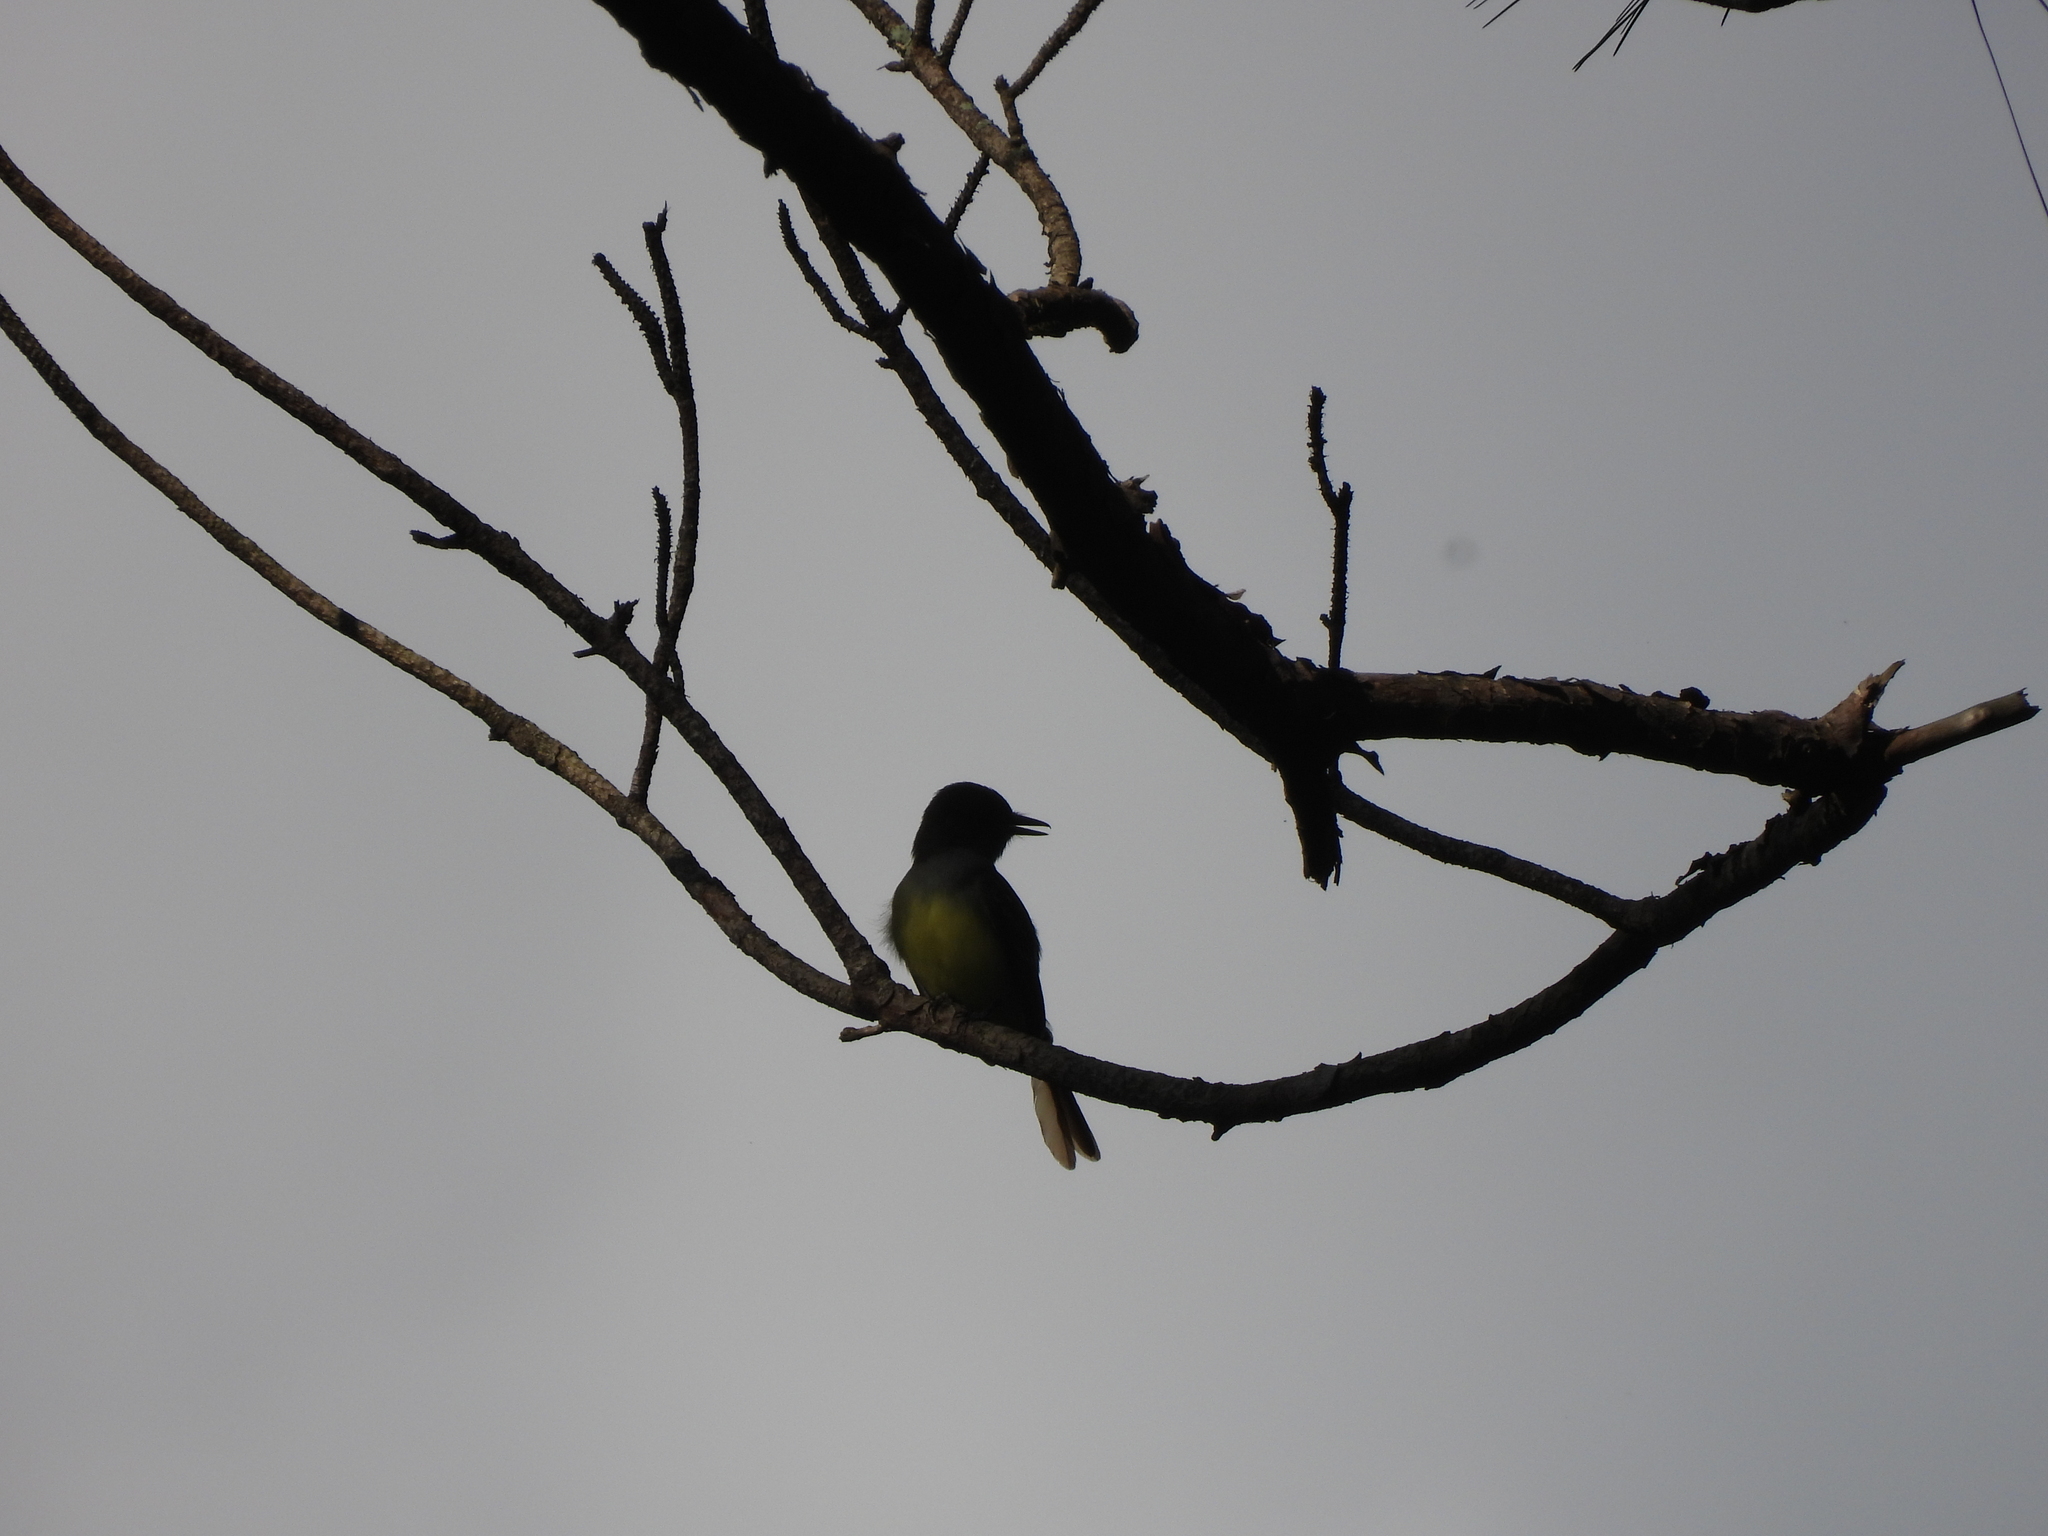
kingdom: Animalia
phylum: Chordata
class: Aves
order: Passeriformes
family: Tyrannidae
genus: Myiarchus
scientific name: Myiarchus crinitus
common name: Great crested flycatcher
